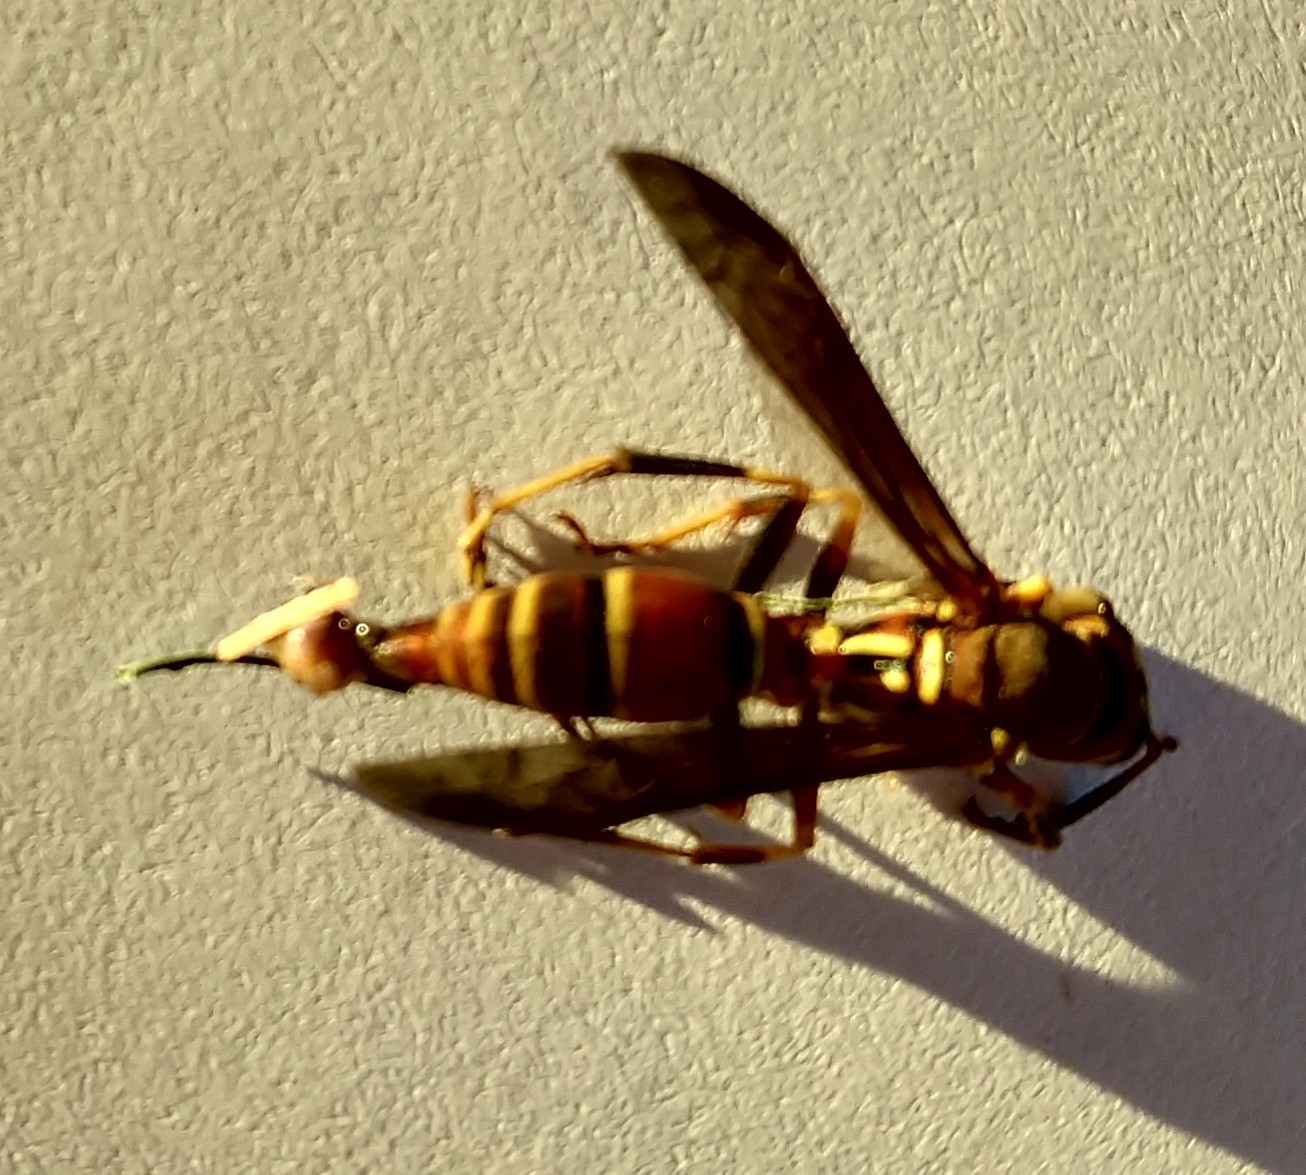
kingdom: Animalia
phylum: Arthropoda
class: Insecta
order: Hymenoptera
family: Eumenidae
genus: Polistes
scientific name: Polistes exclamans
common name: Paper wasp
